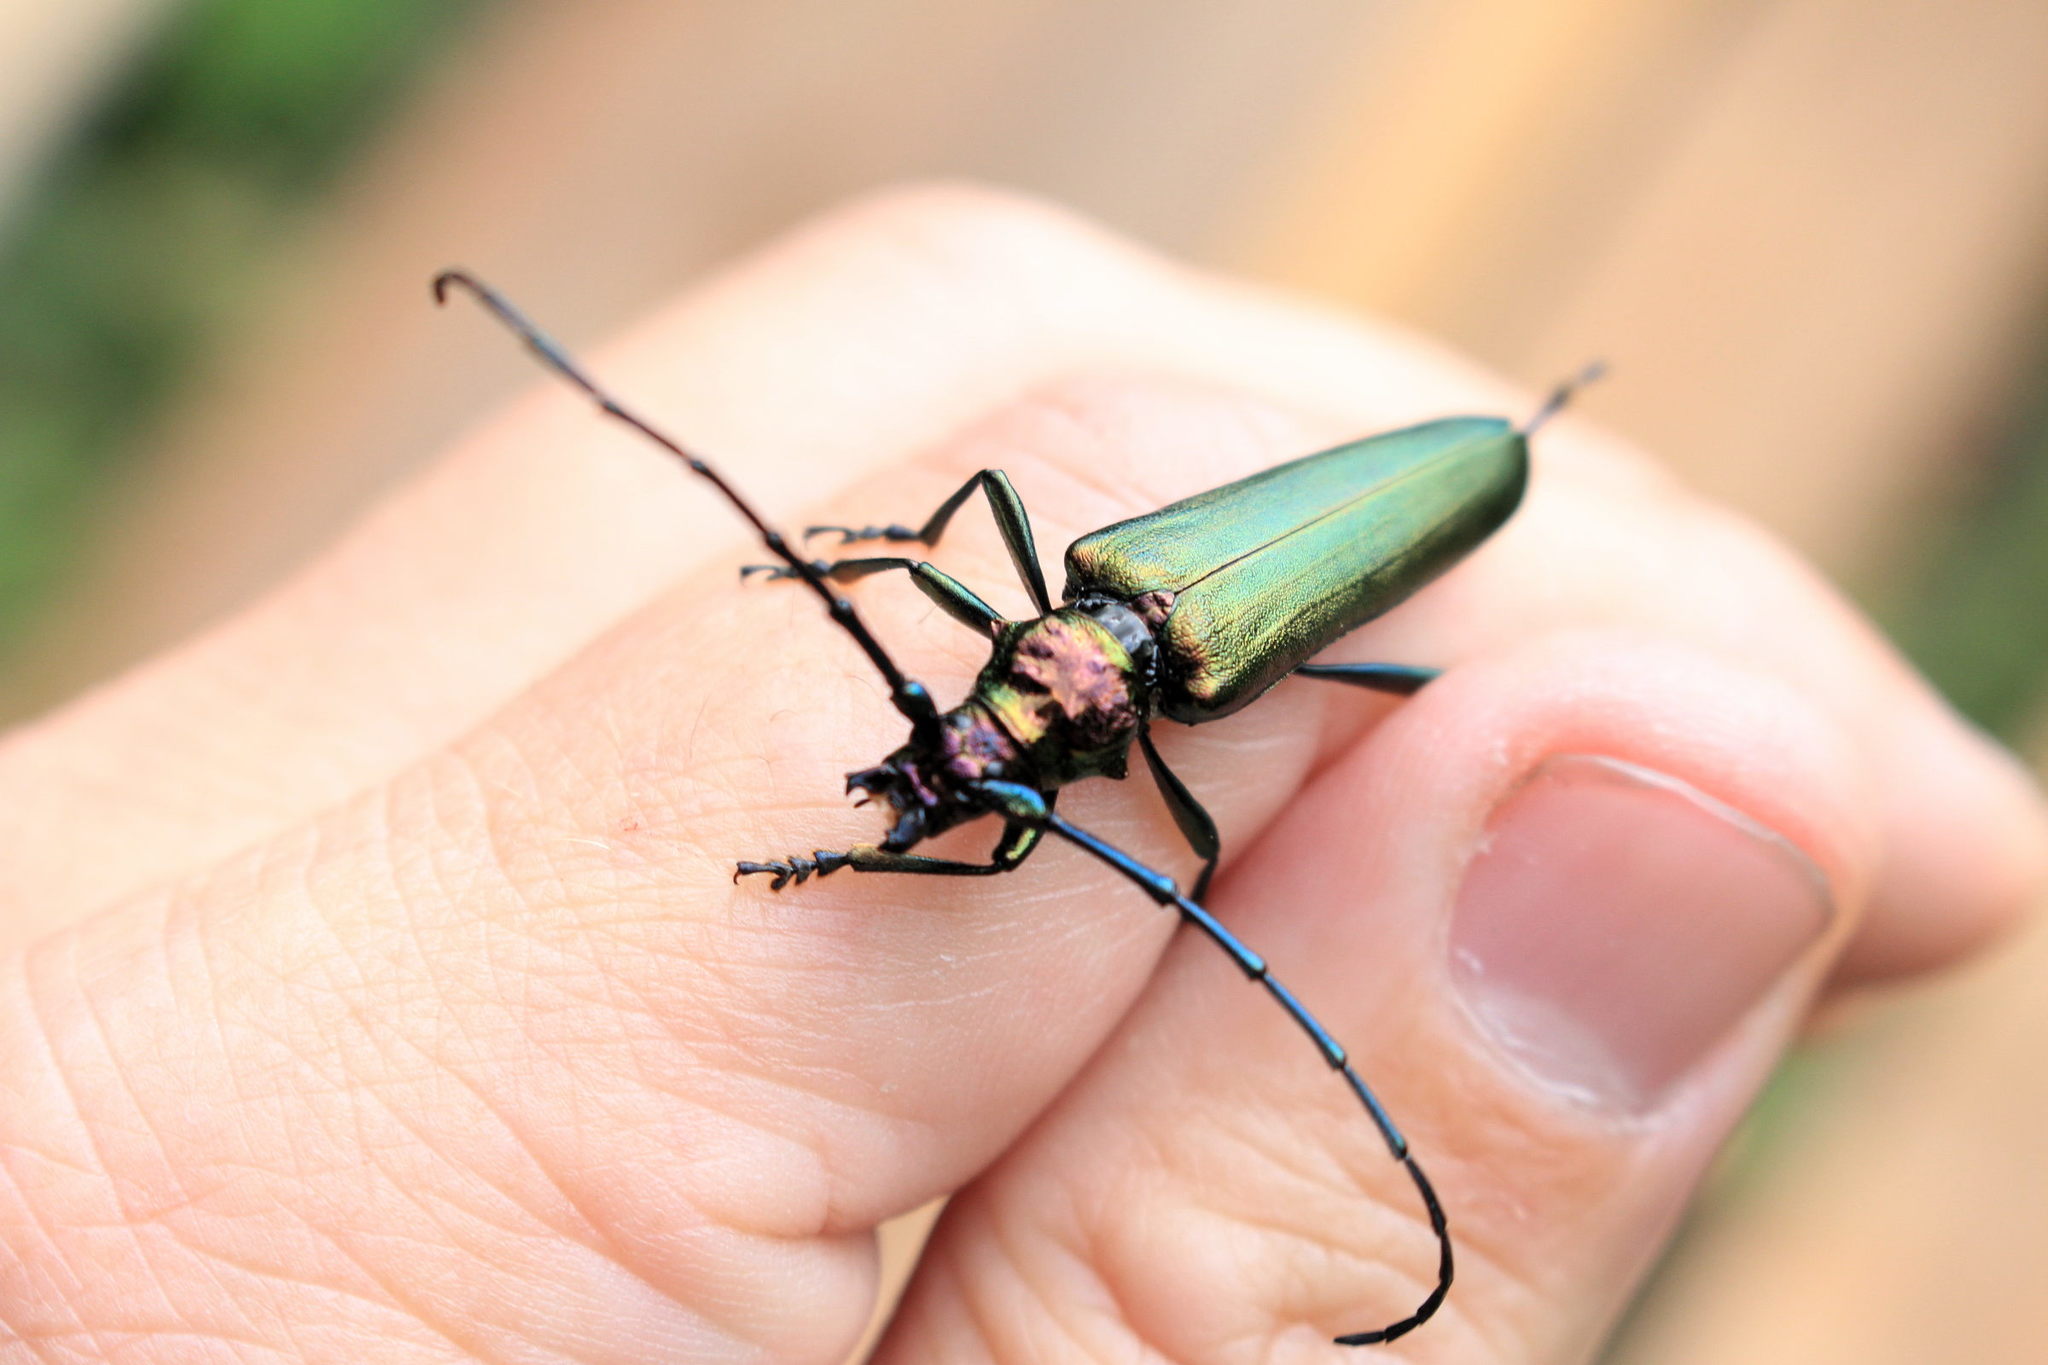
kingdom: Animalia
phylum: Arthropoda
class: Insecta
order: Coleoptera
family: Cerambycidae
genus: Aromia
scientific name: Aromia moschata
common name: Musk beetle
